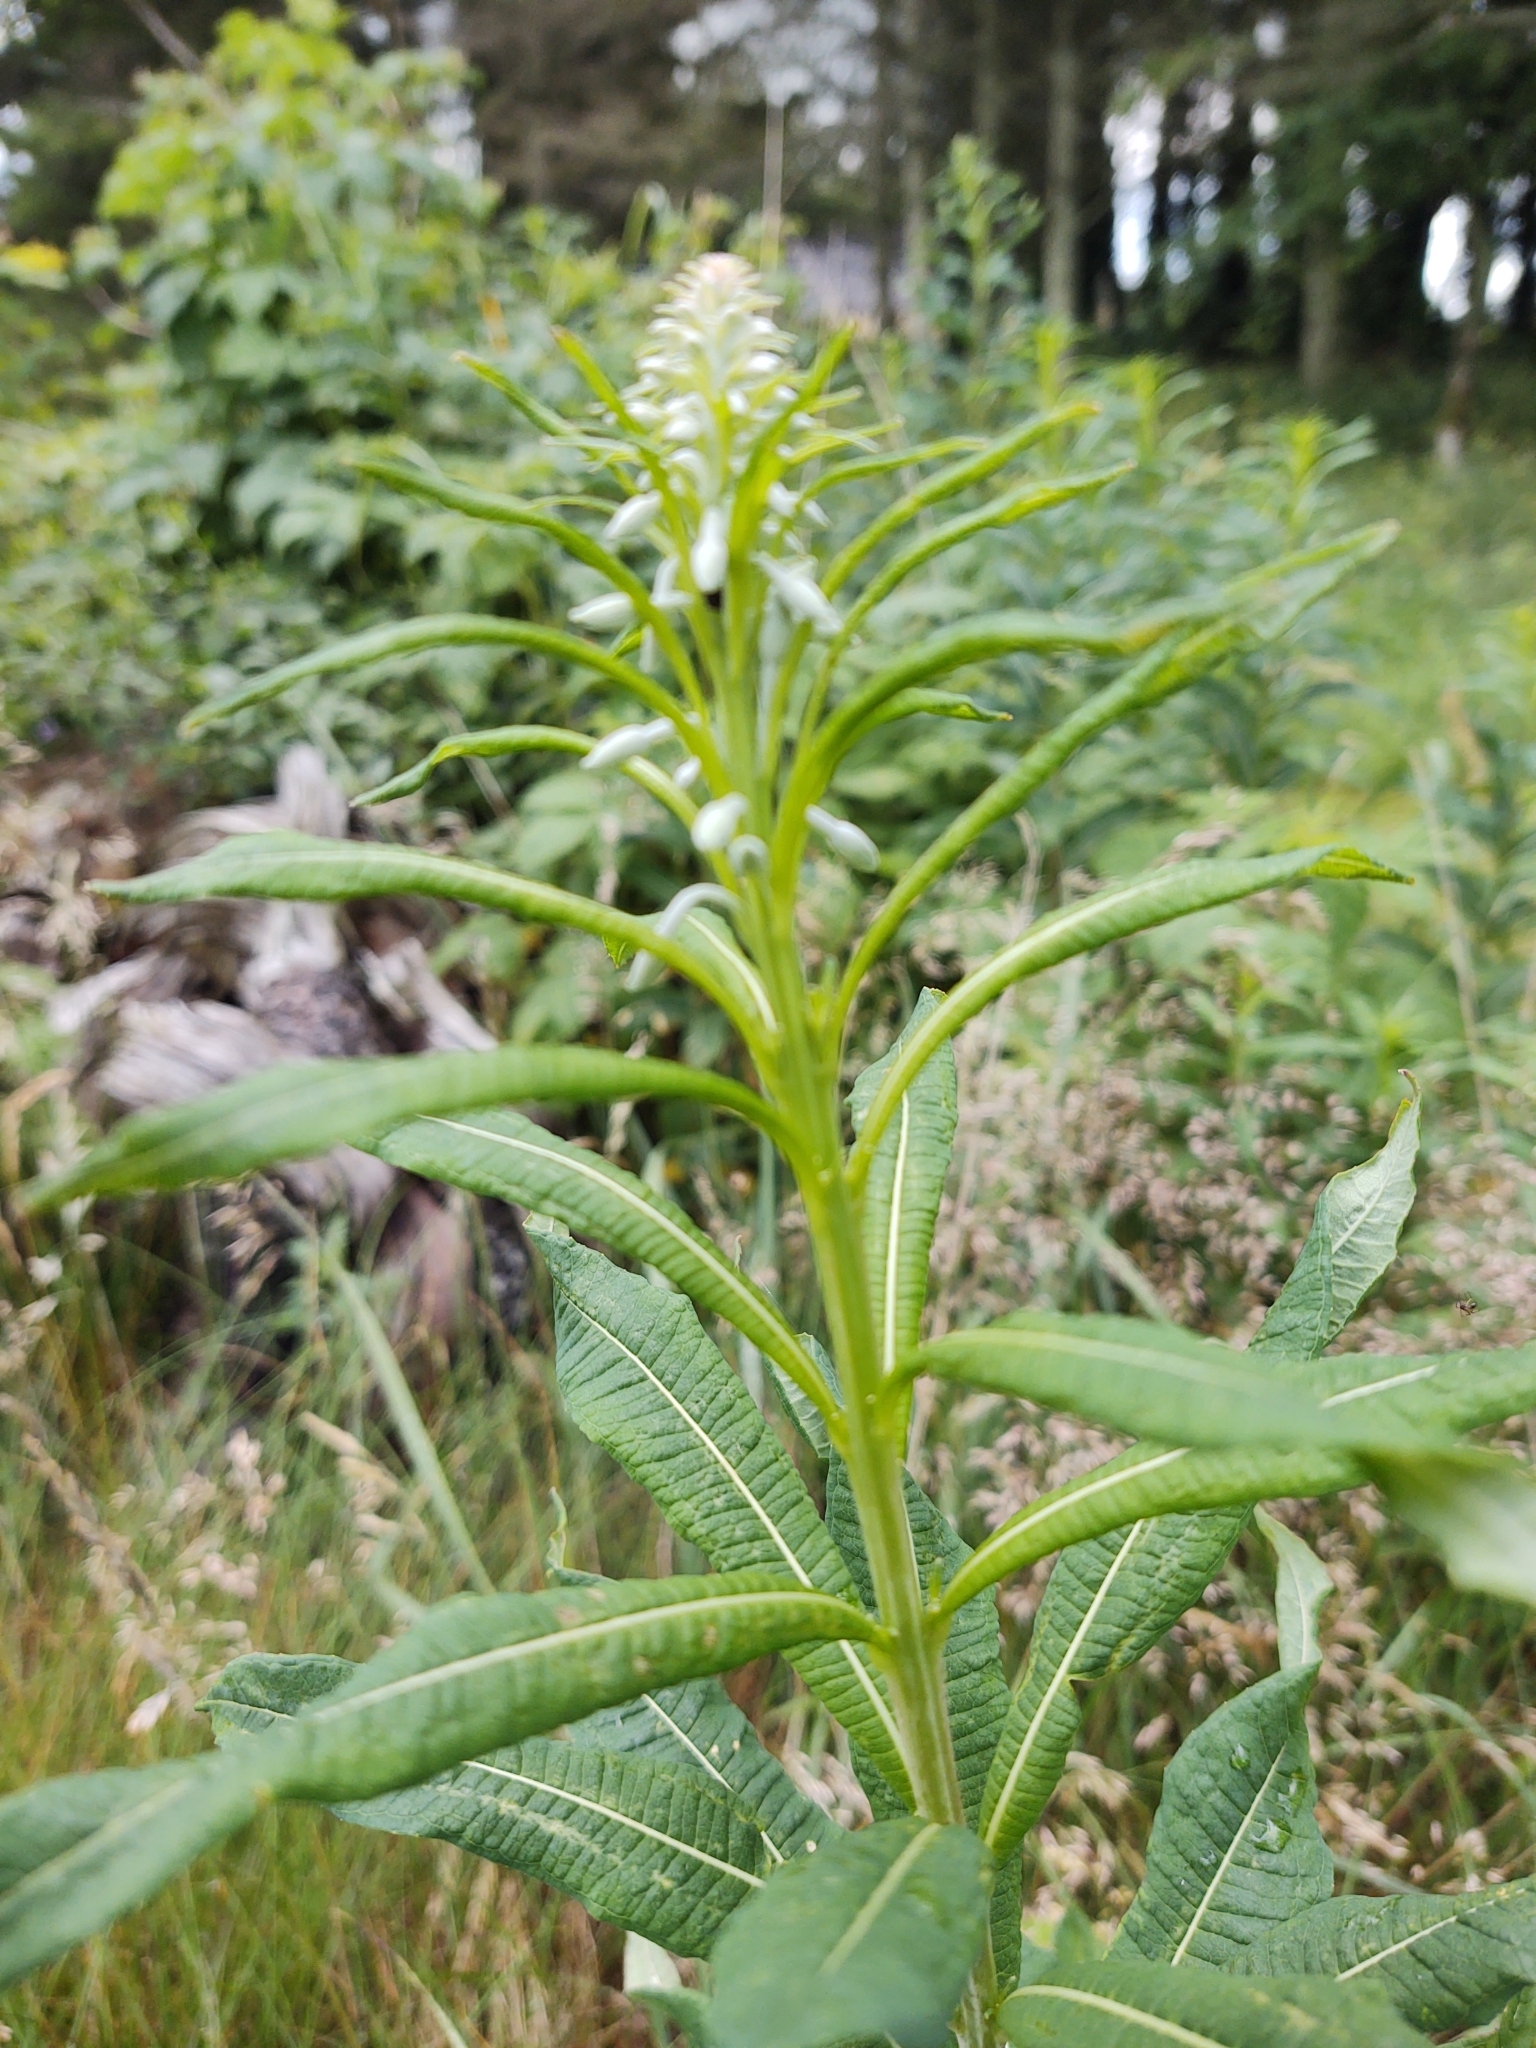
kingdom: Plantae
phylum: Tracheophyta
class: Magnoliopsida
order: Myrtales
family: Onagraceae
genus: Chamaenerion
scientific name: Chamaenerion angustifolium
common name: Fireweed
